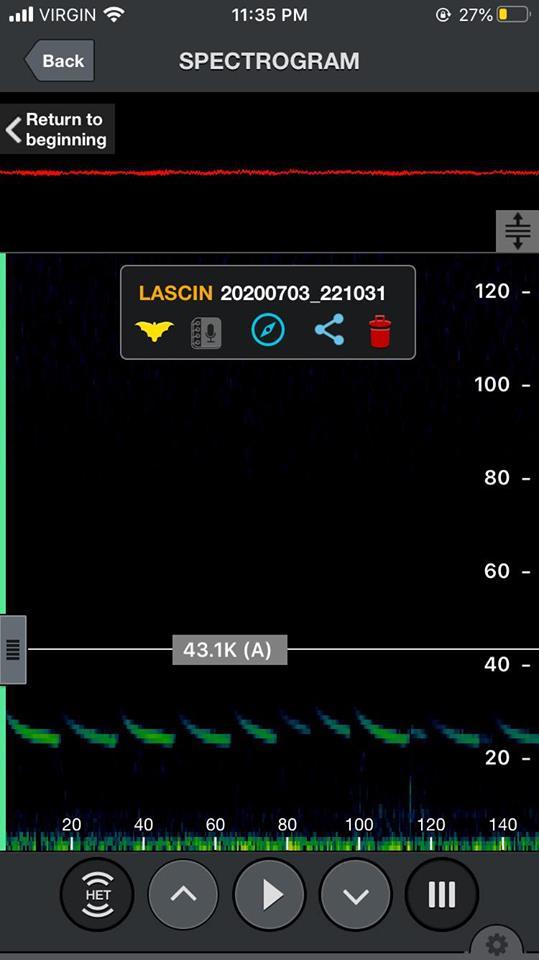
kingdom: Animalia
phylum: Chordata
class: Mammalia
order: Chiroptera
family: Vespertilionidae
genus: Aeorestes
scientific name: Aeorestes cinereus
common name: North american hoary bat
